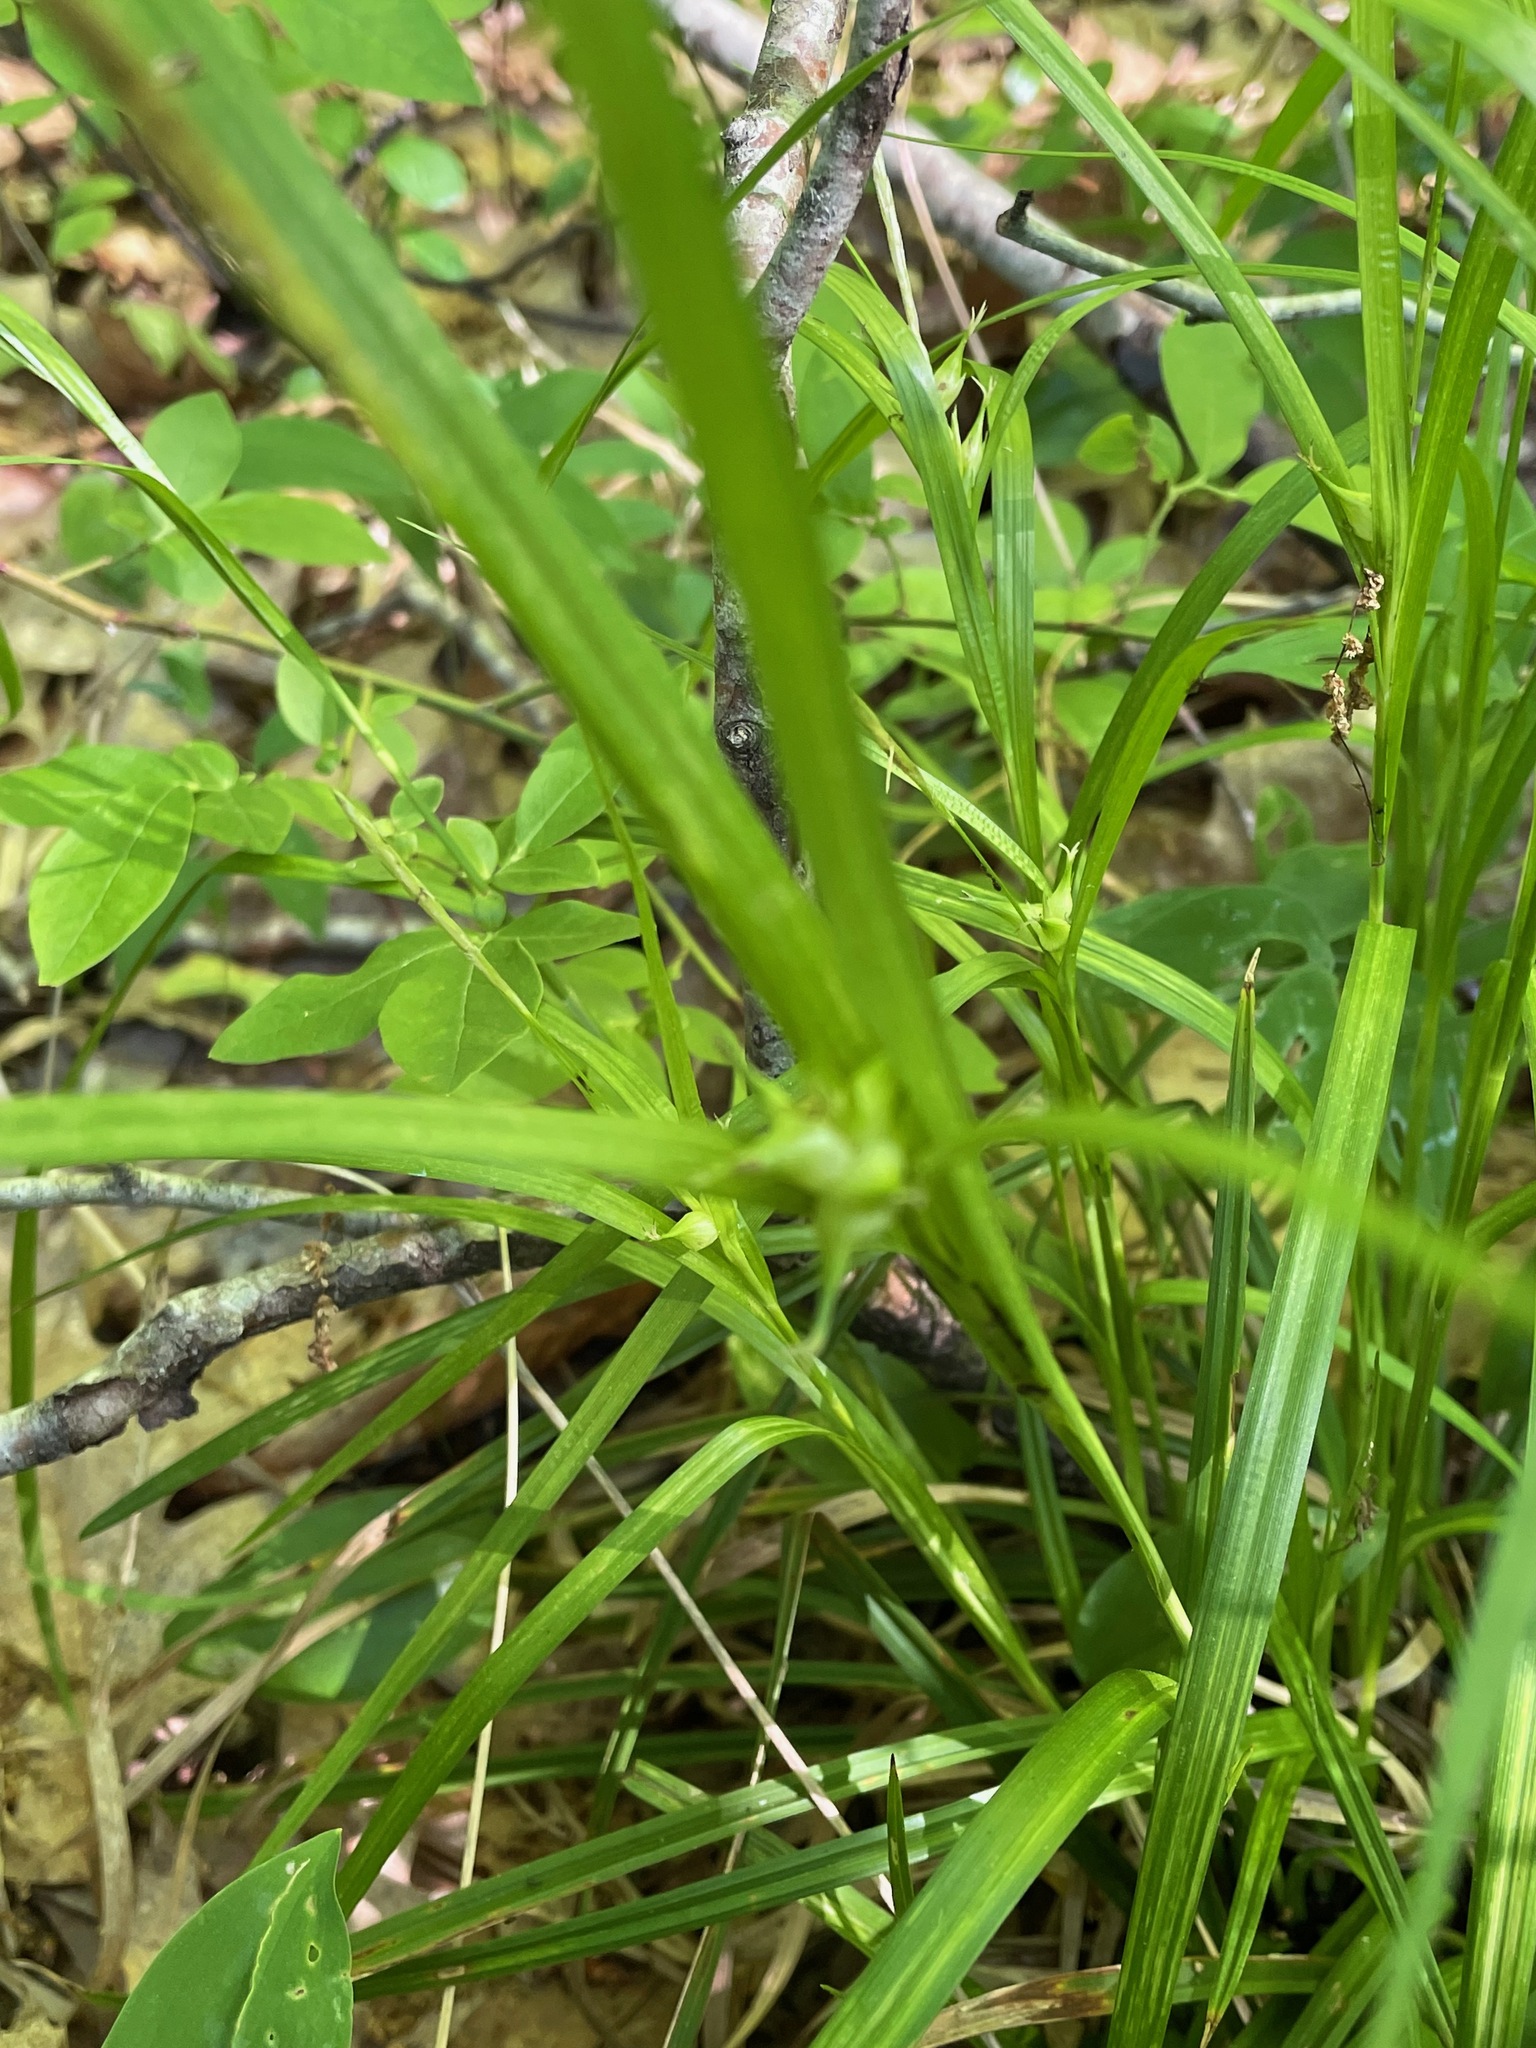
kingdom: Plantae
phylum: Tracheophyta
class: Liliopsida
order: Poales
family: Cyperaceae
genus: Carex
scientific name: Carex intumescens
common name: Greater bladder sedge
